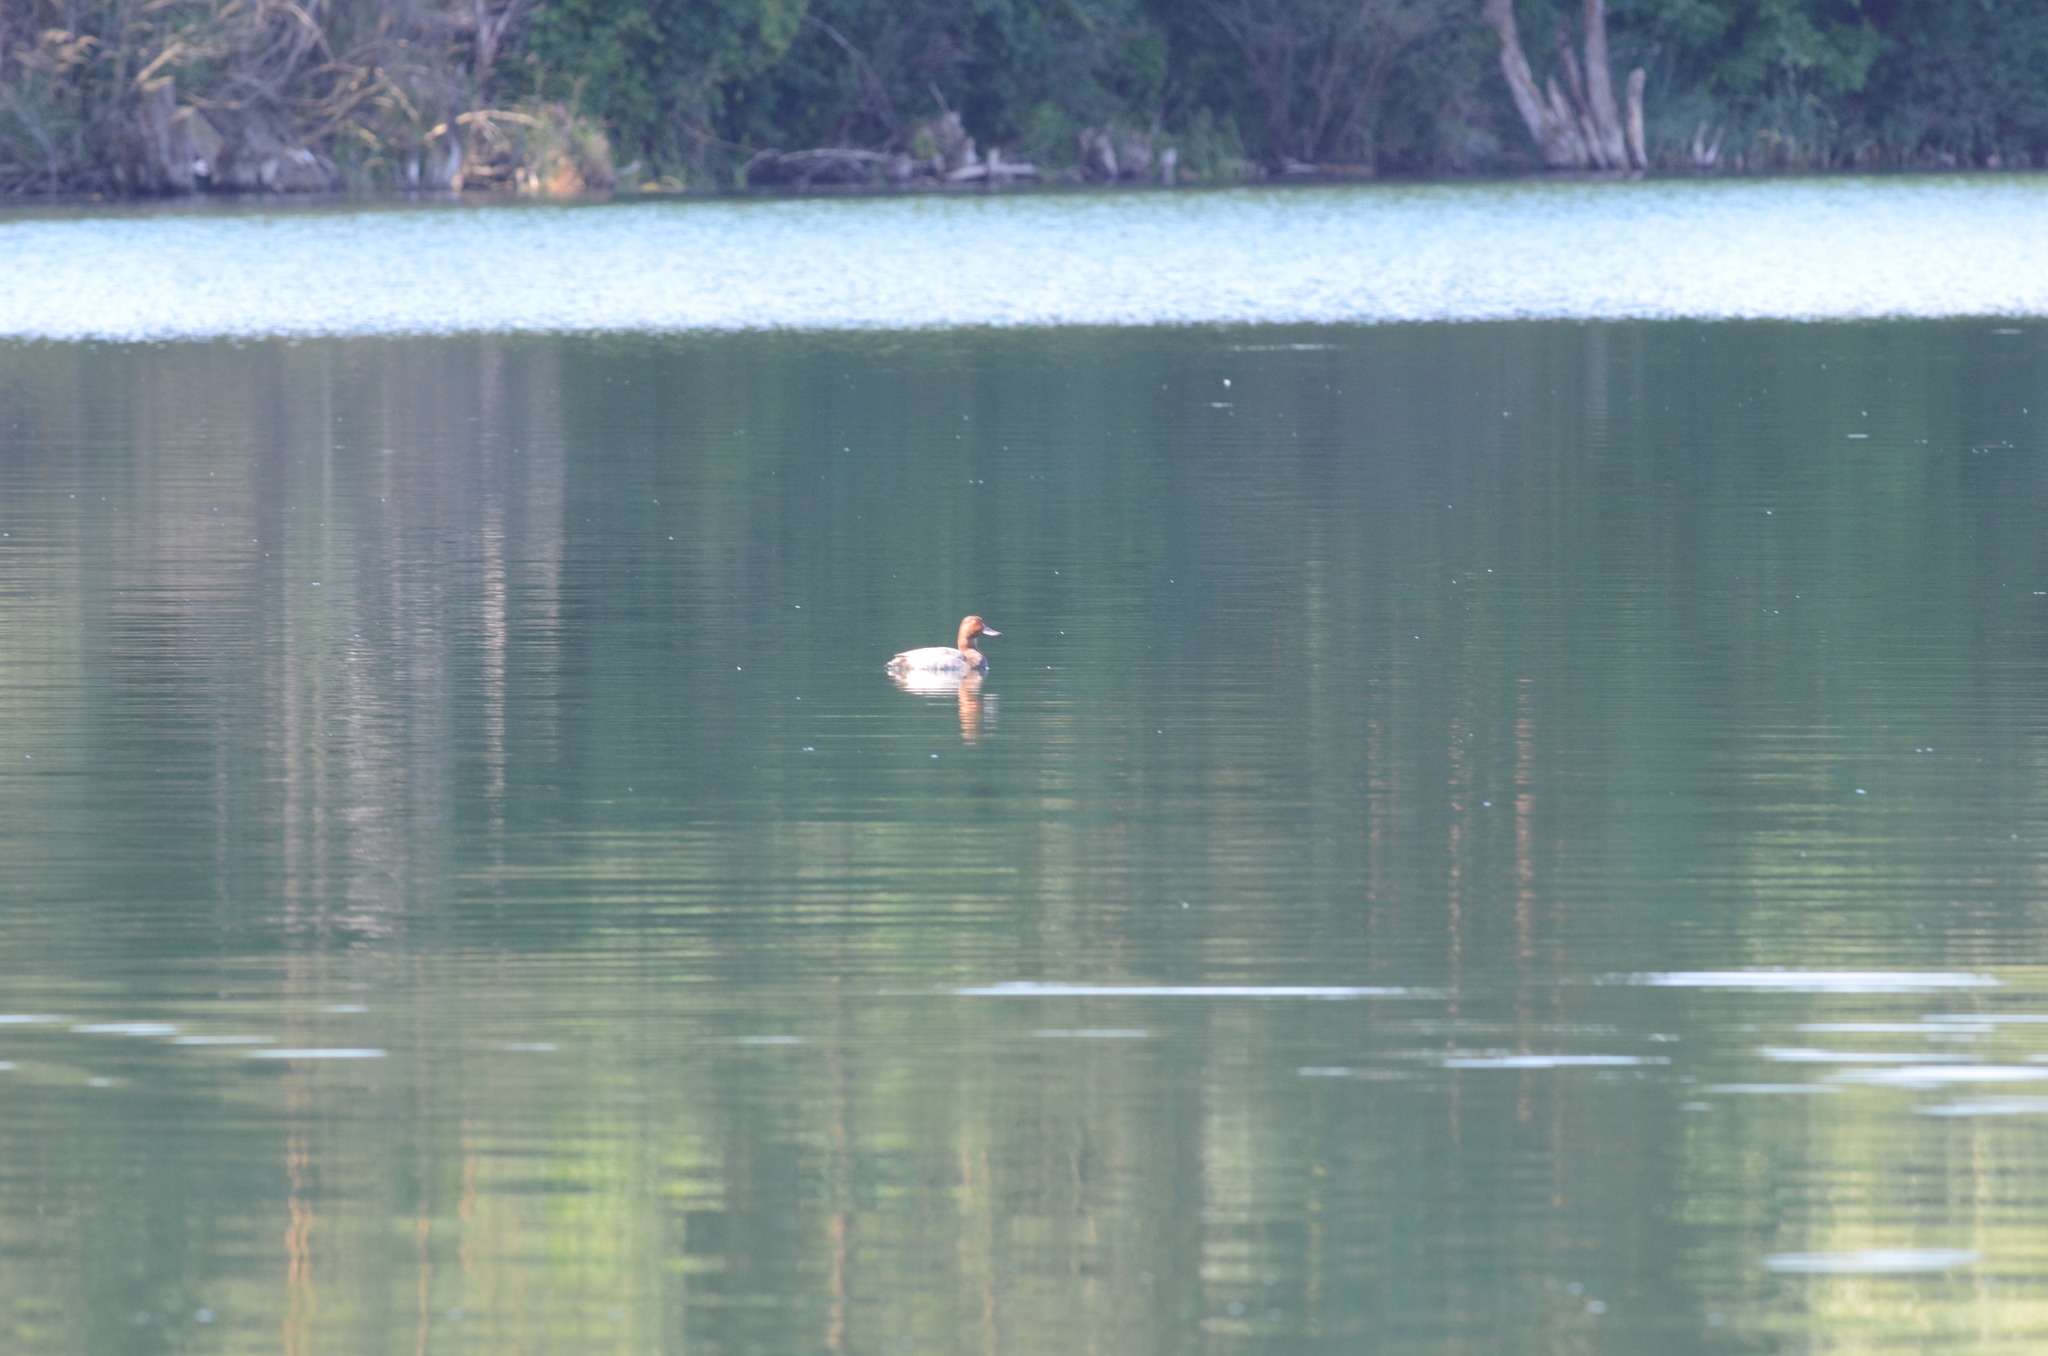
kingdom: Animalia
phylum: Chordata
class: Aves
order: Anseriformes
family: Anatidae
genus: Aythya
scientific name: Aythya ferina
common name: Common pochard
